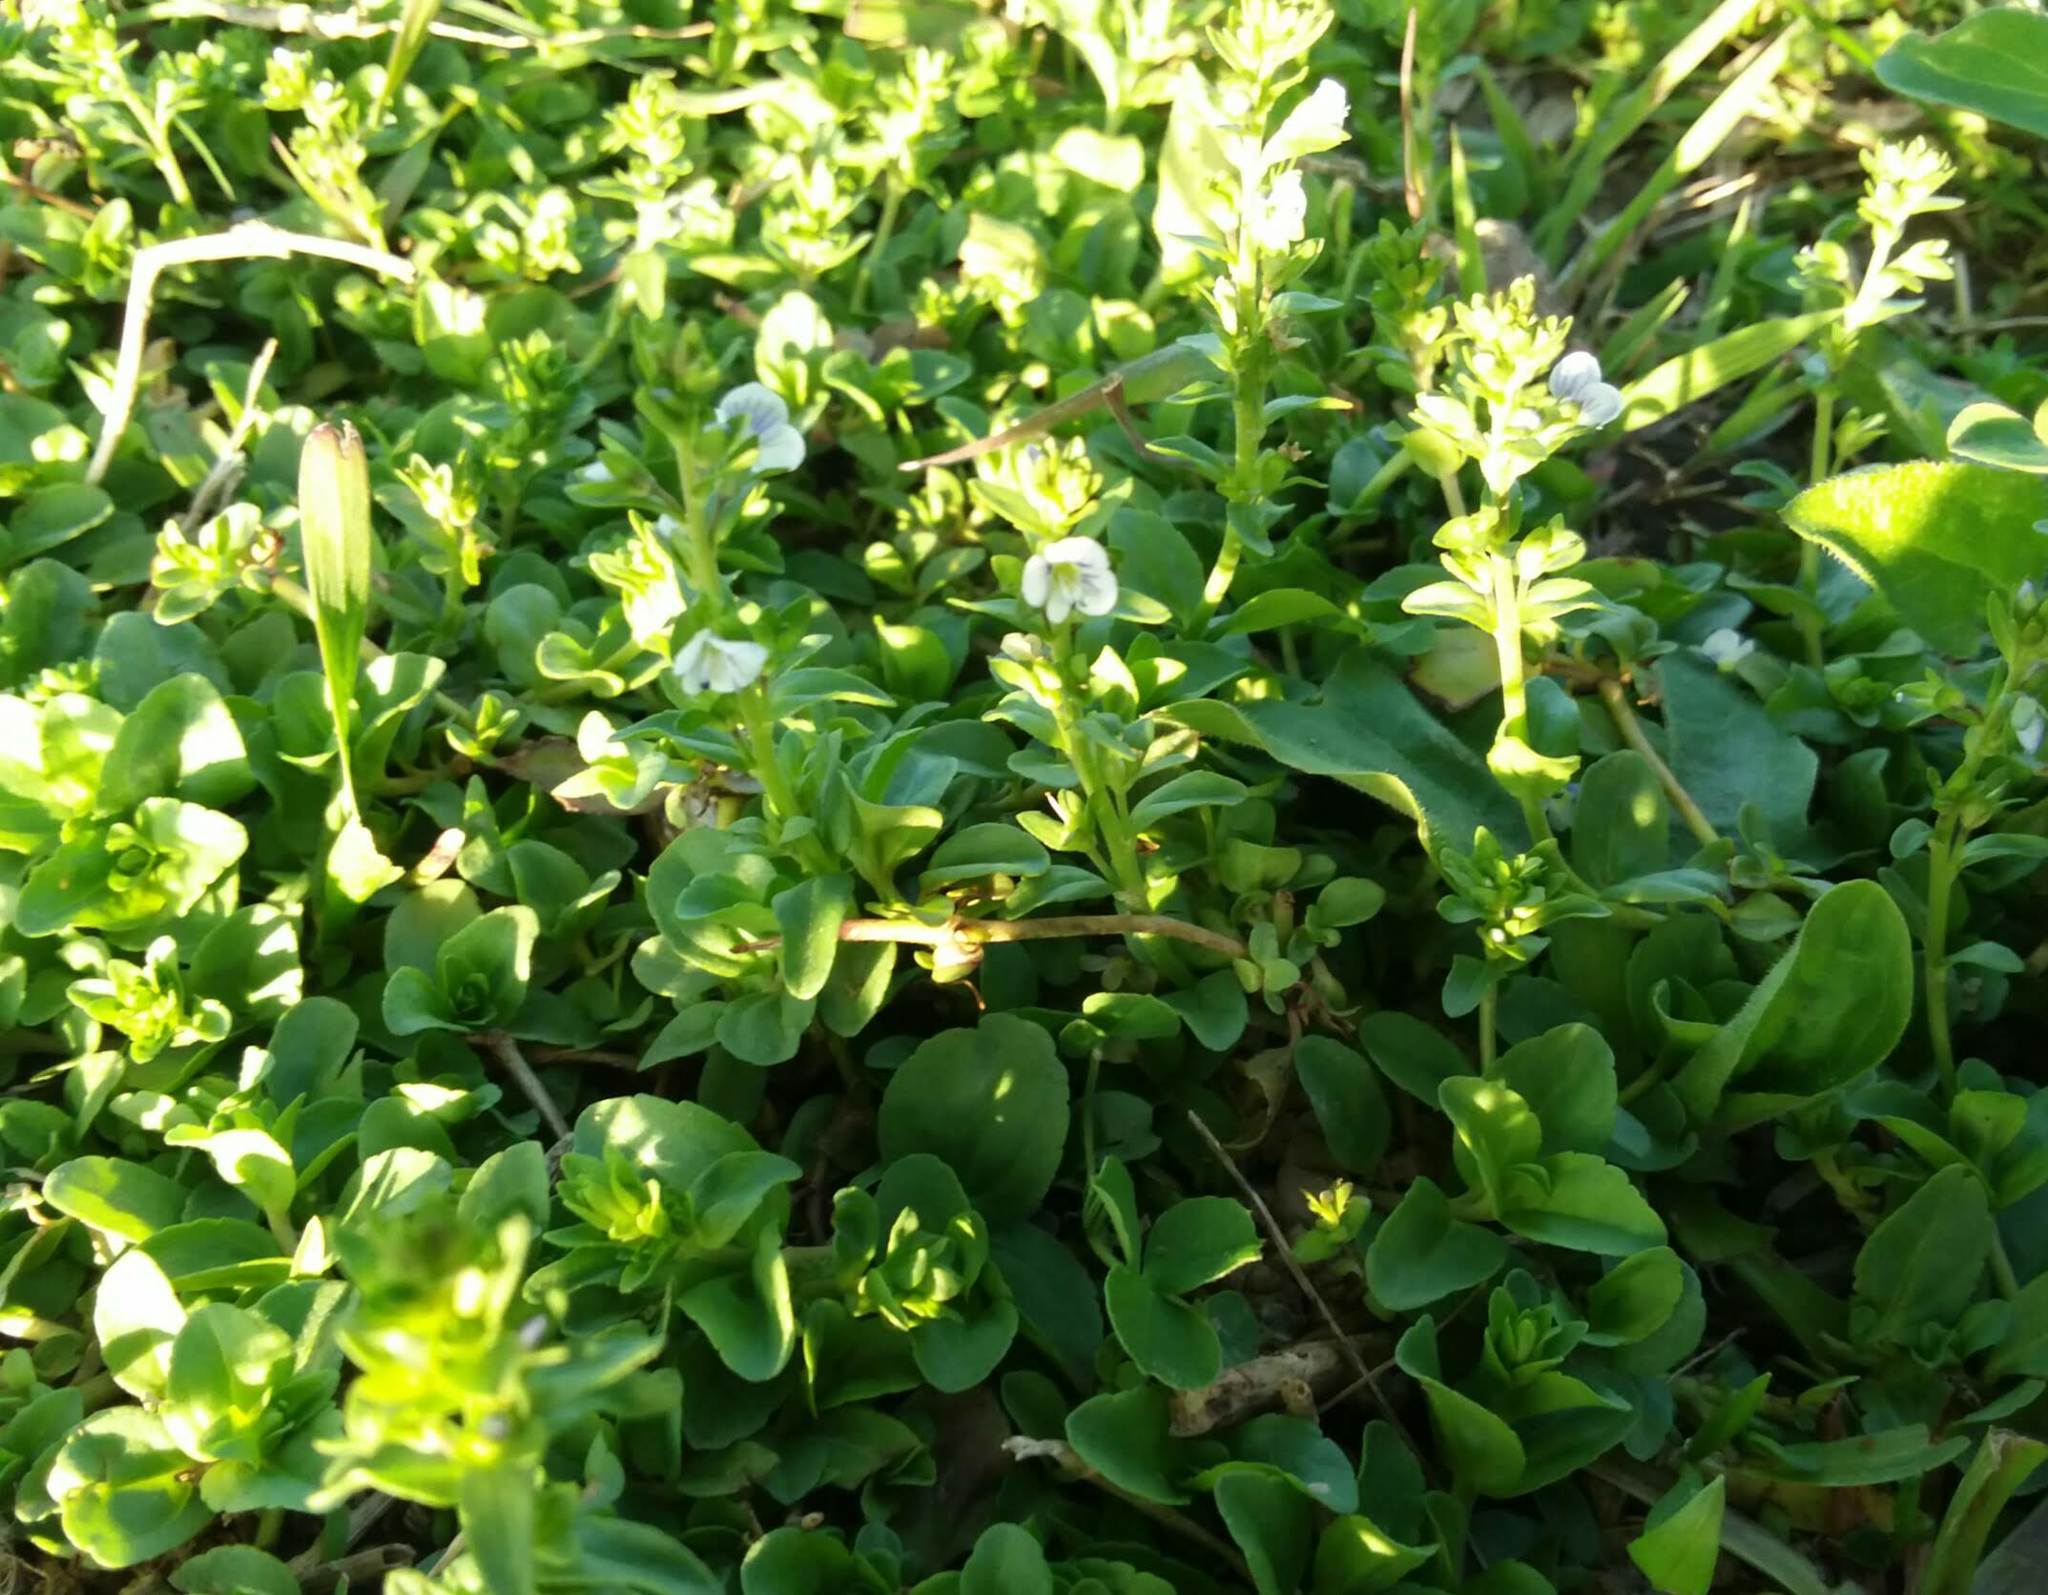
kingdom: Plantae
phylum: Tracheophyta
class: Magnoliopsida
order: Lamiales
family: Plantaginaceae
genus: Veronica
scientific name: Veronica serpyllifolia
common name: Thyme-leaved speedwell
